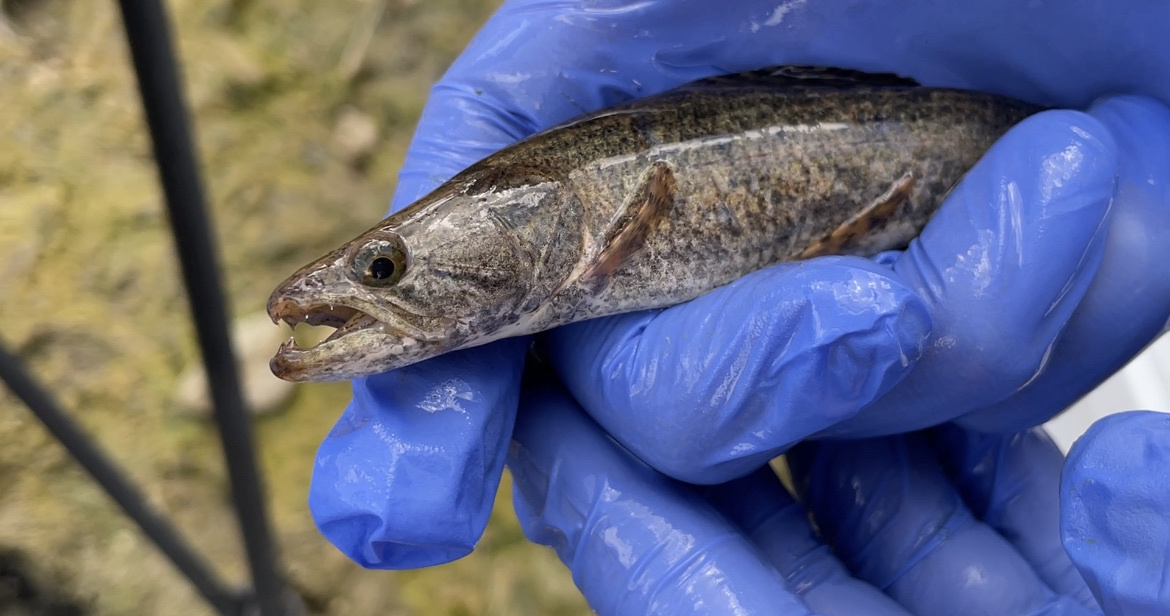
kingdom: Animalia
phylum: Chordata
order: Characiformes
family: Erythrinidae
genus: Hoplias
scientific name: Hoplias malabaricus
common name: Trahira
